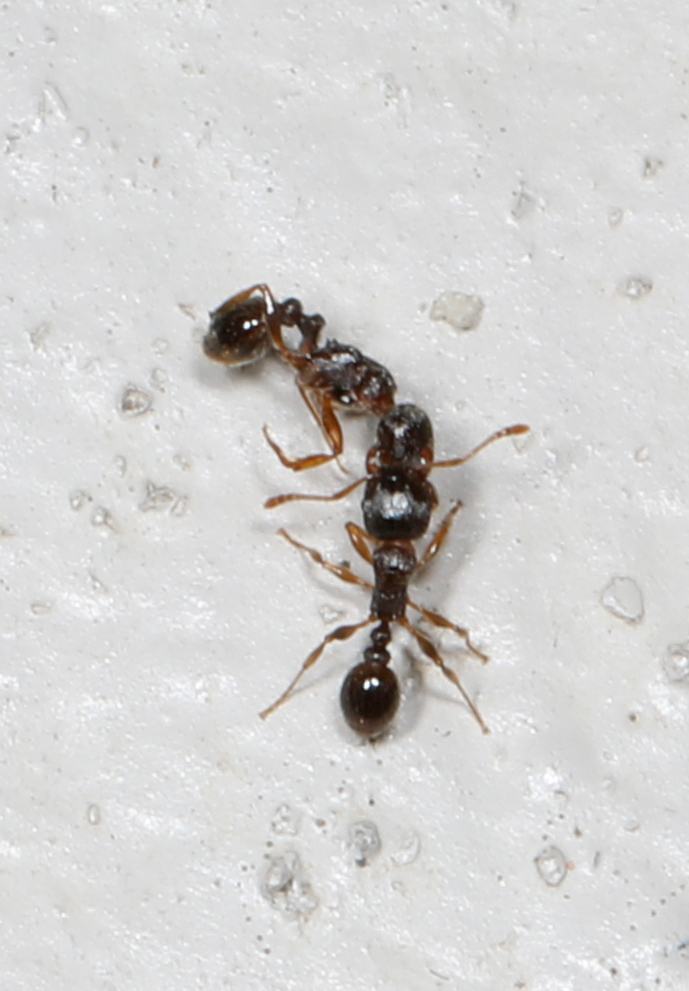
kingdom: Animalia
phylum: Arthropoda
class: Insecta
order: Hymenoptera
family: Formicidae
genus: Tetramorium
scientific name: Tetramorium immigrans
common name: Pavement ant
